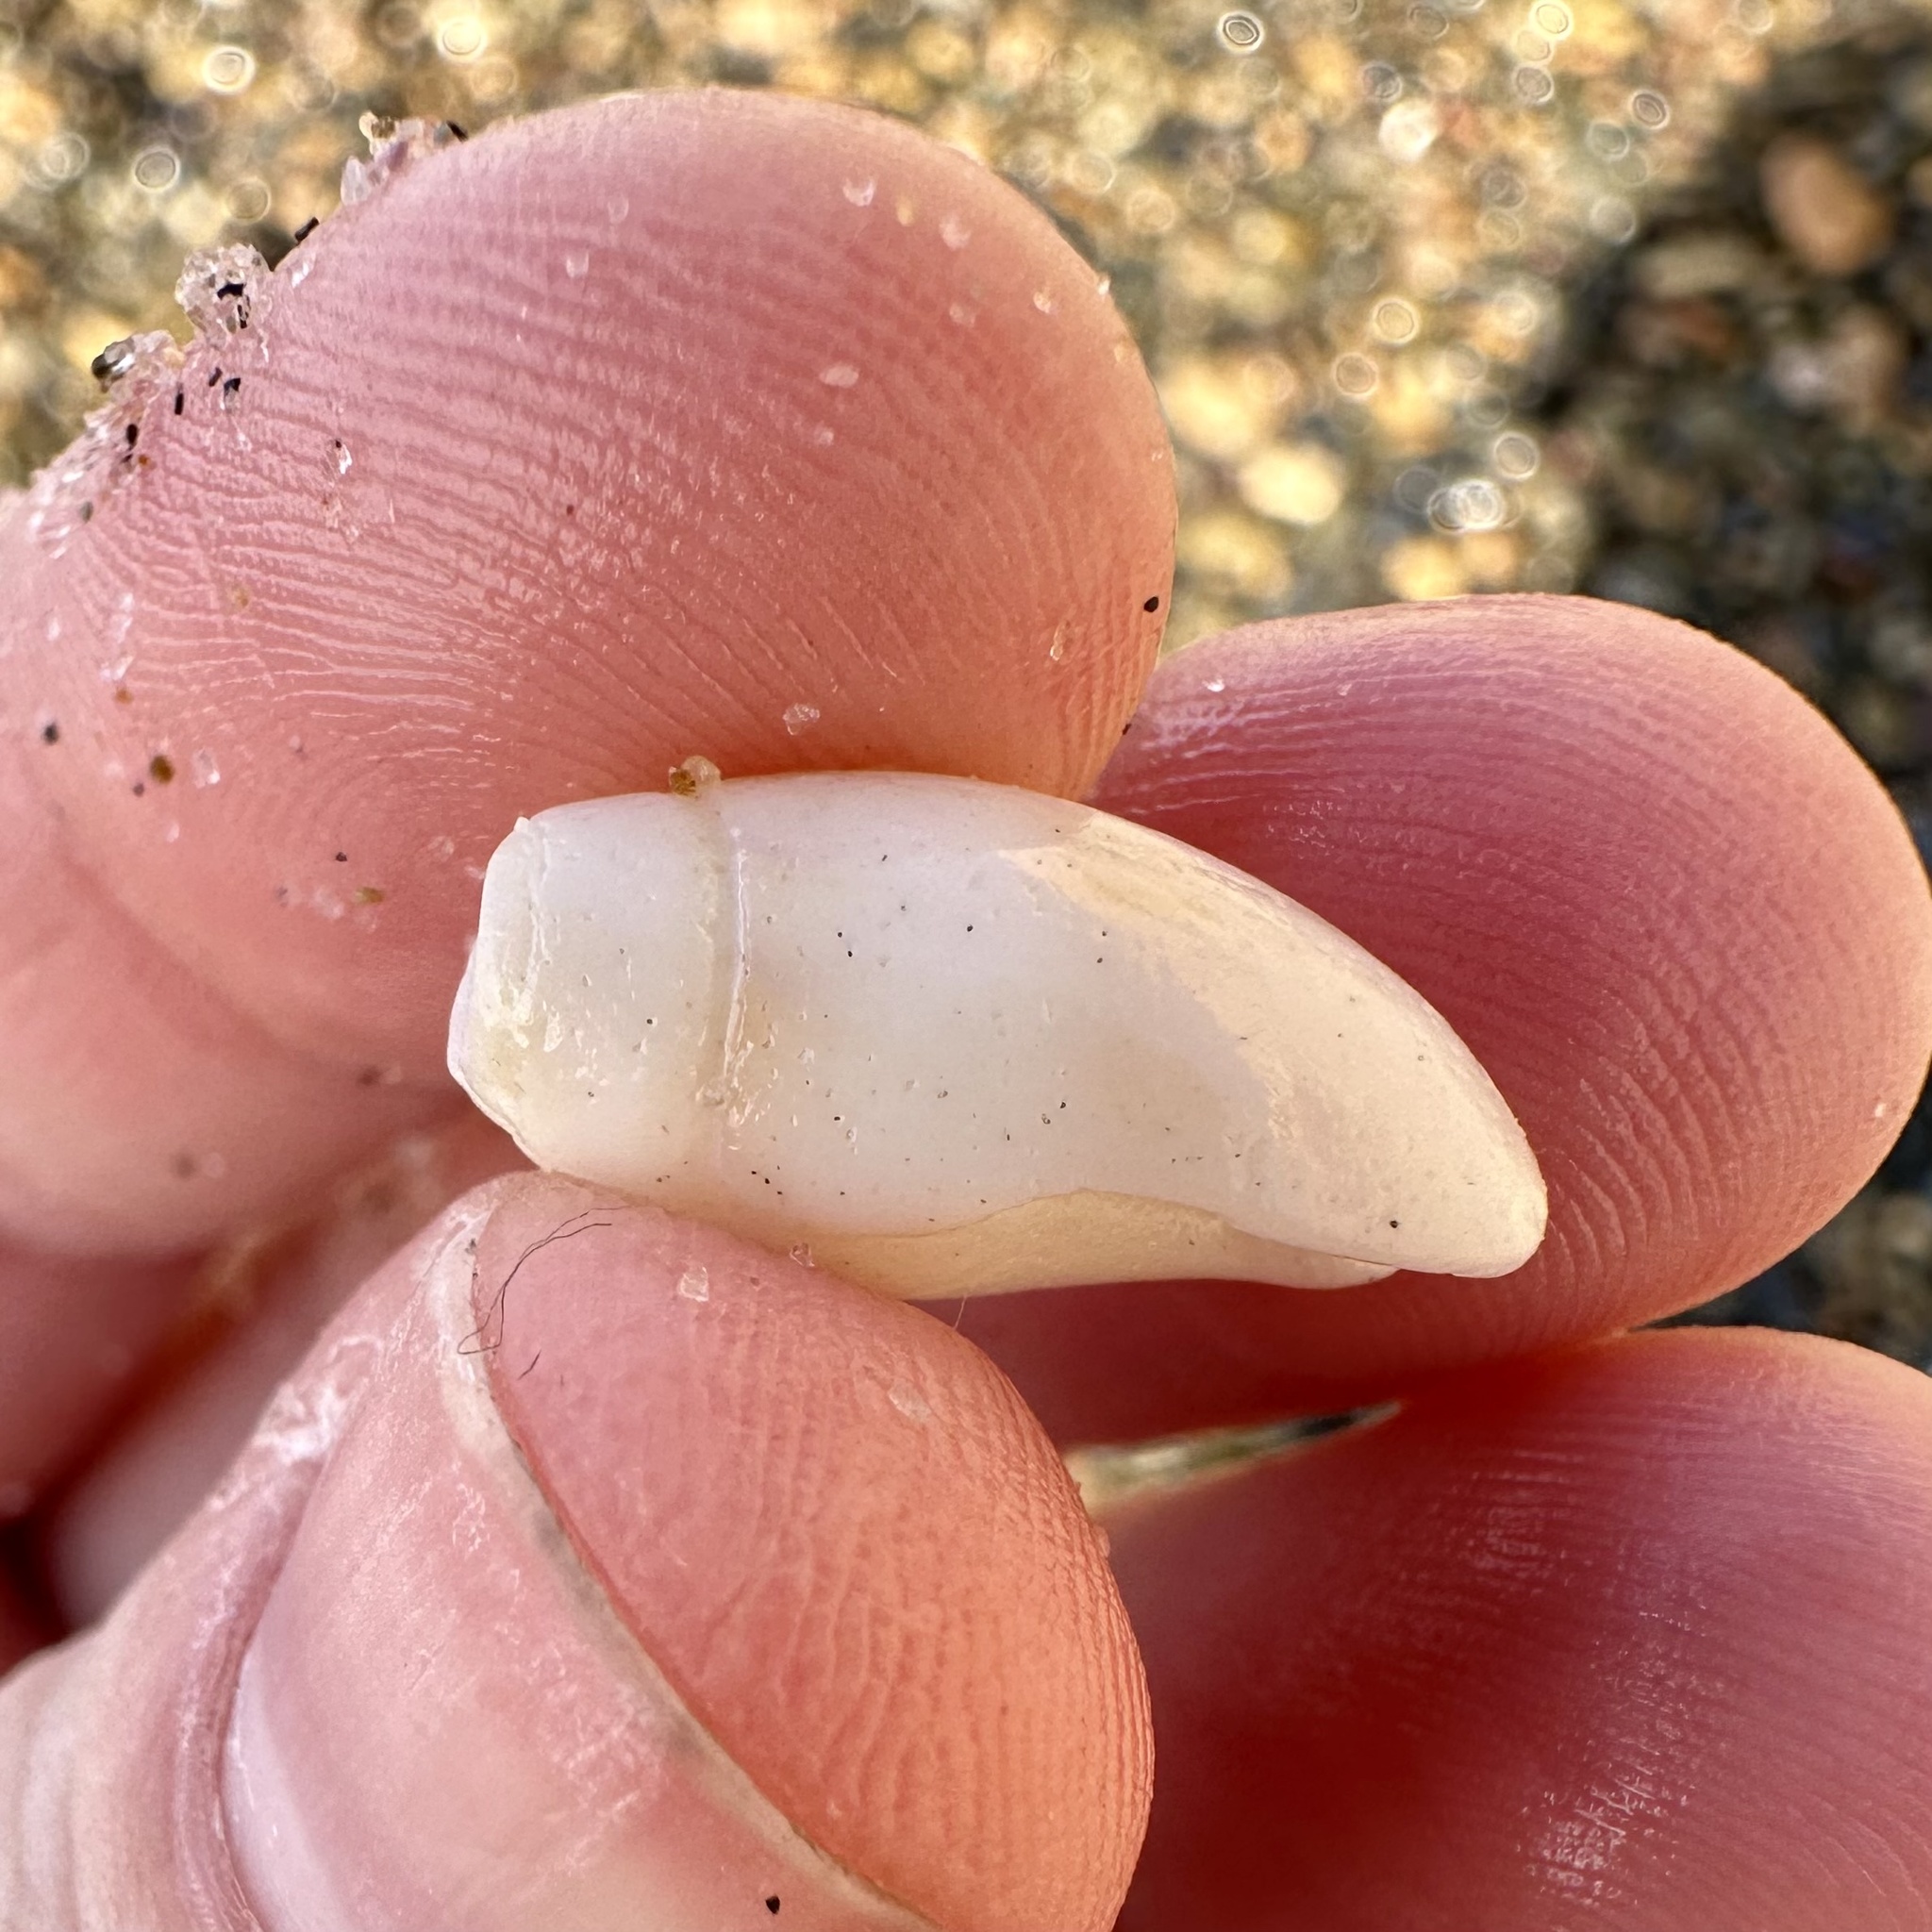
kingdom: Animalia
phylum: Mollusca
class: Gastropoda
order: Neogastropoda
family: Olividae
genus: Callianax
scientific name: Callianax biplicata
